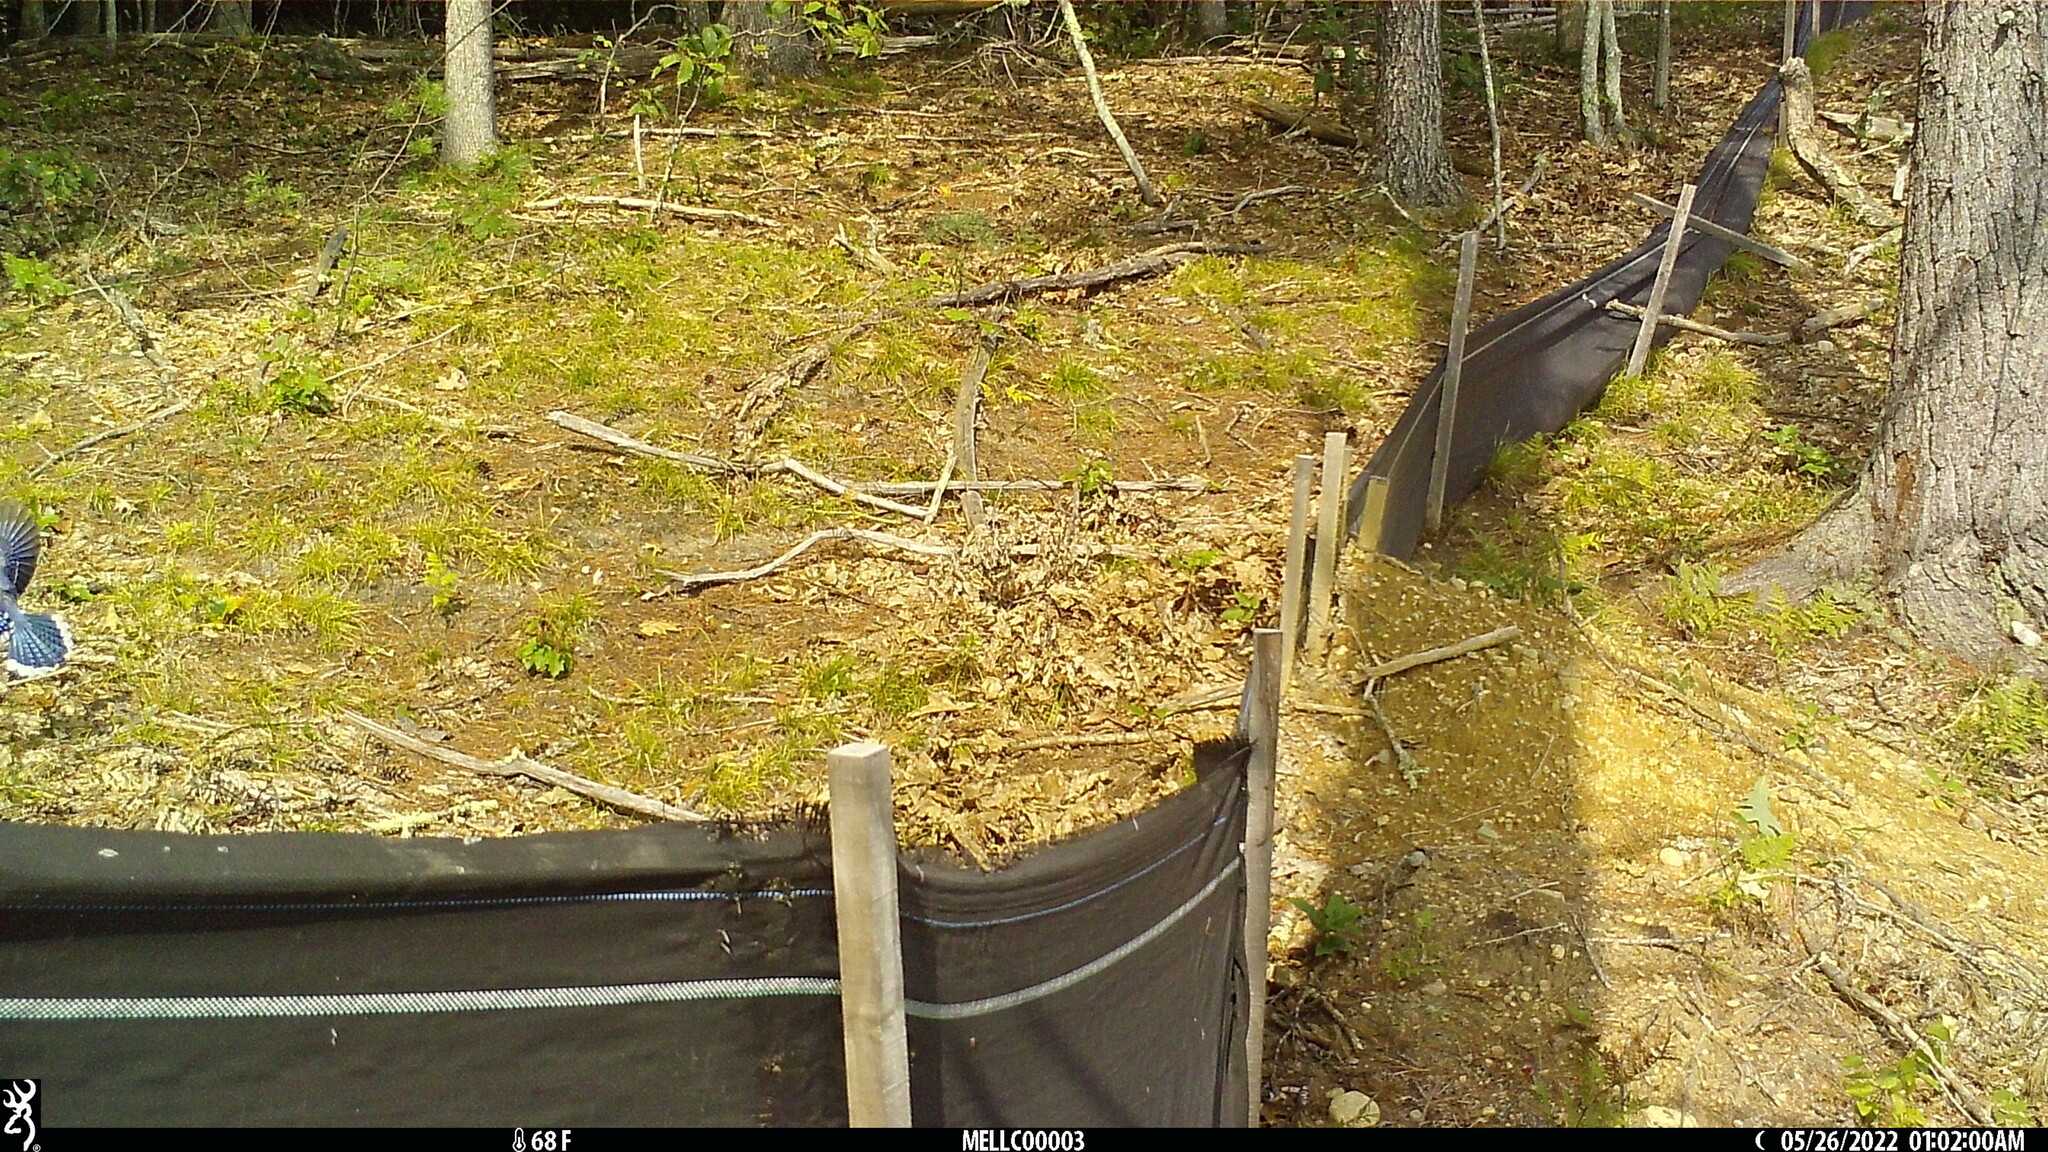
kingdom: Animalia
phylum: Chordata
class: Aves
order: Passeriformes
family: Corvidae
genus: Cyanocitta
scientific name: Cyanocitta cristata
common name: Blue jay
